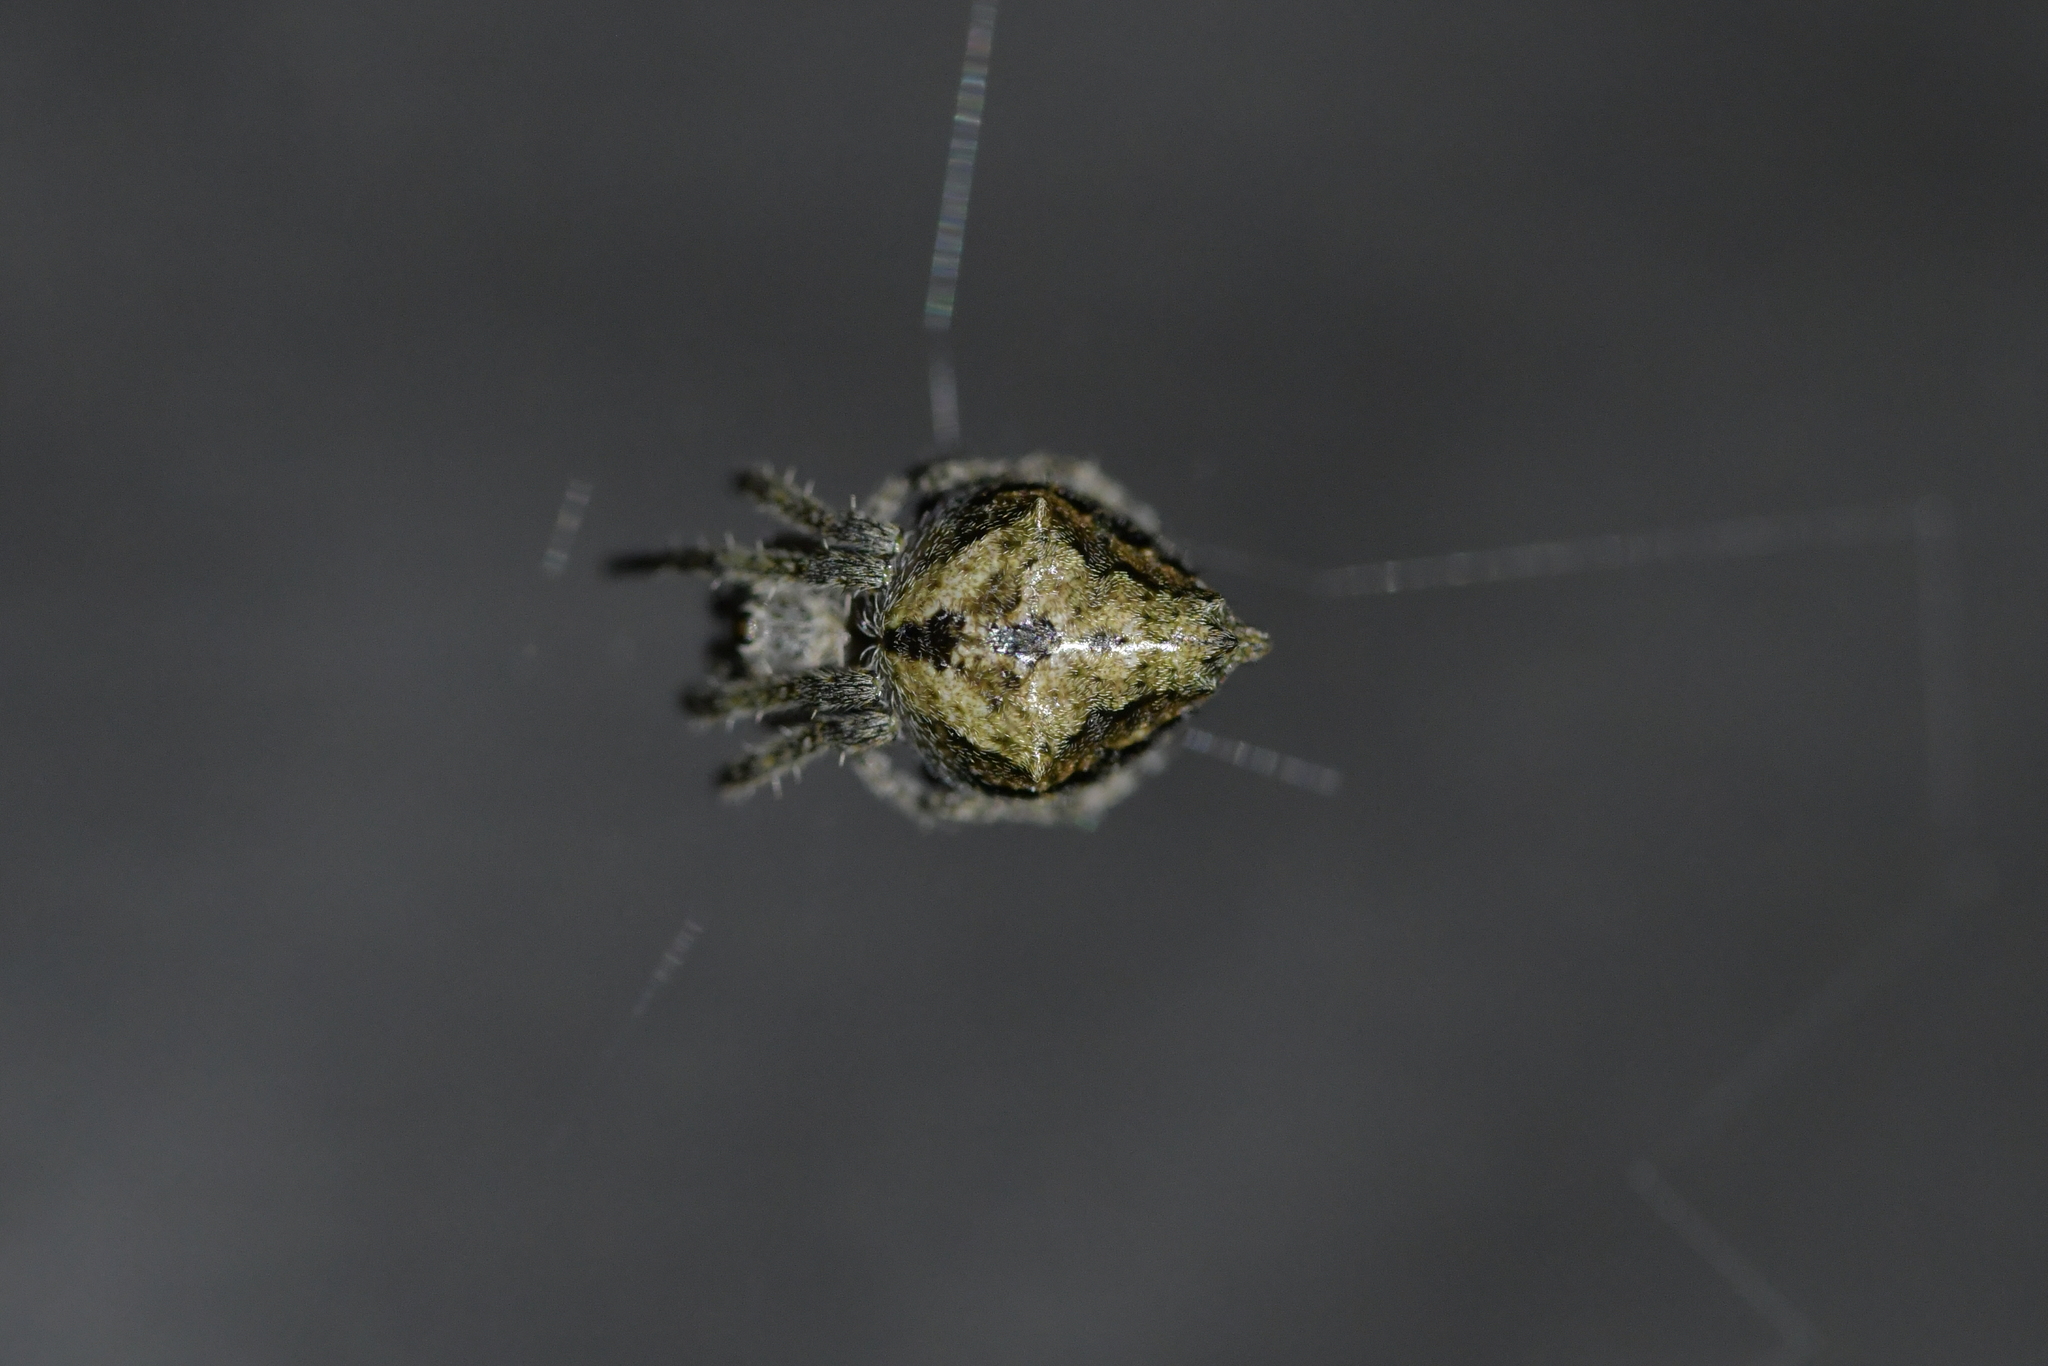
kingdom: Animalia
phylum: Arthropoda
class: Arachnida
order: Araneae
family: Araneidae
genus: Eriophora
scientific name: Eriophora pustulosa
